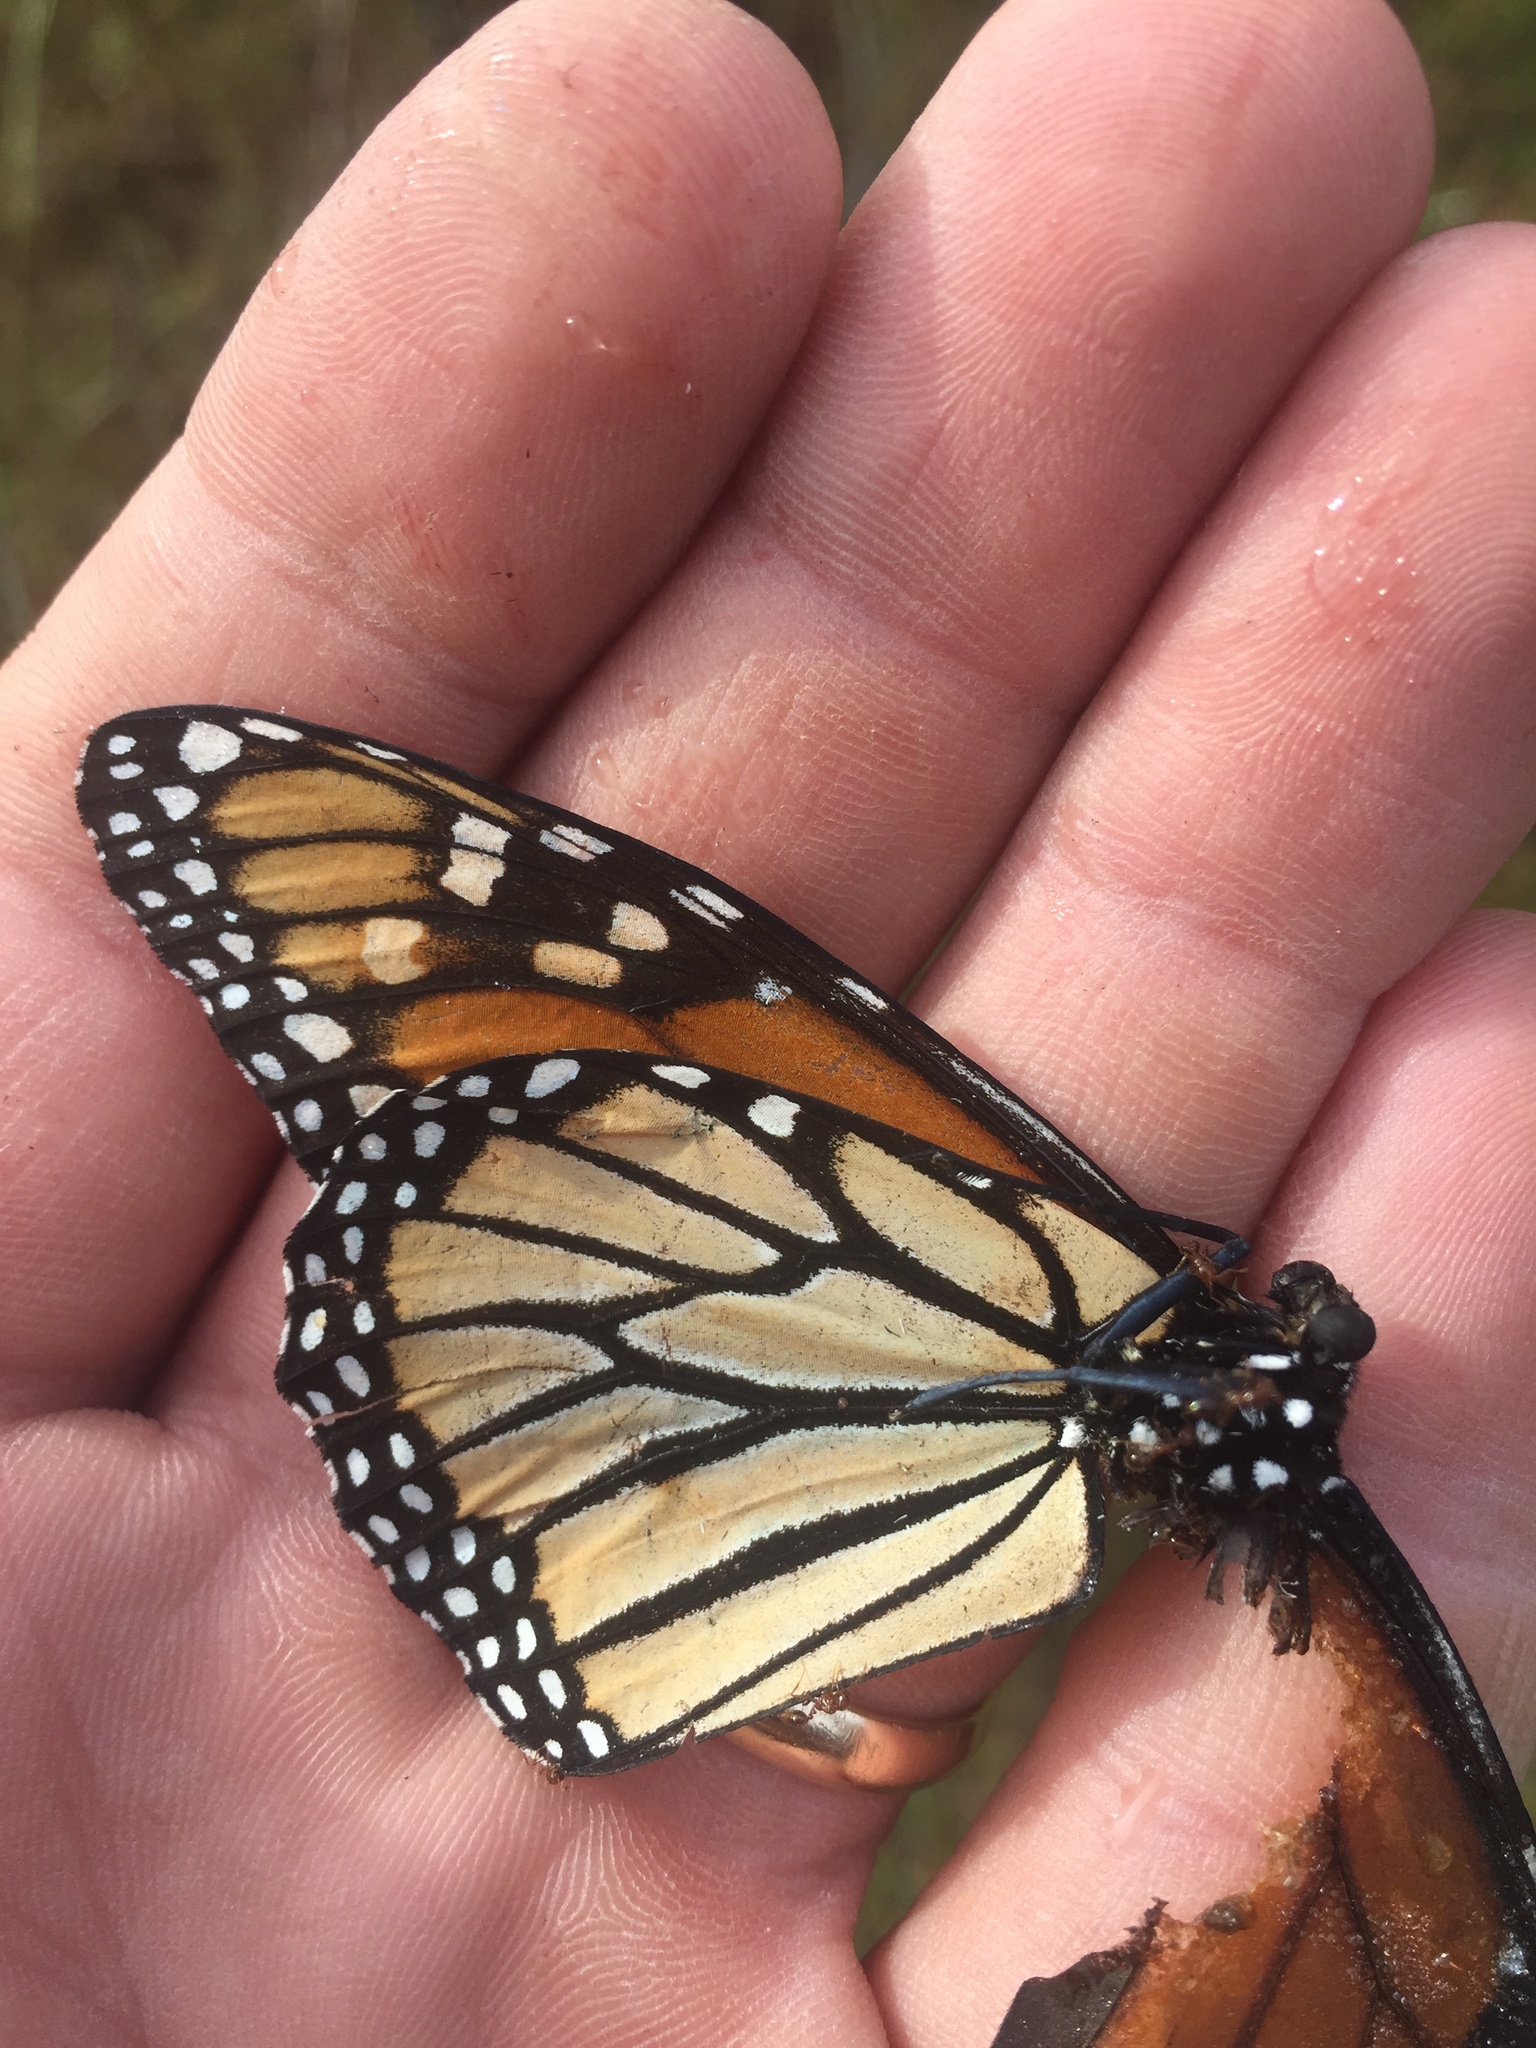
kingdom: Animalia
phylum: Arthropoda
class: Insecta
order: Lepidoptera
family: Nymphalidae
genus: Danaus
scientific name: Danaus plexippus
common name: Monarch
